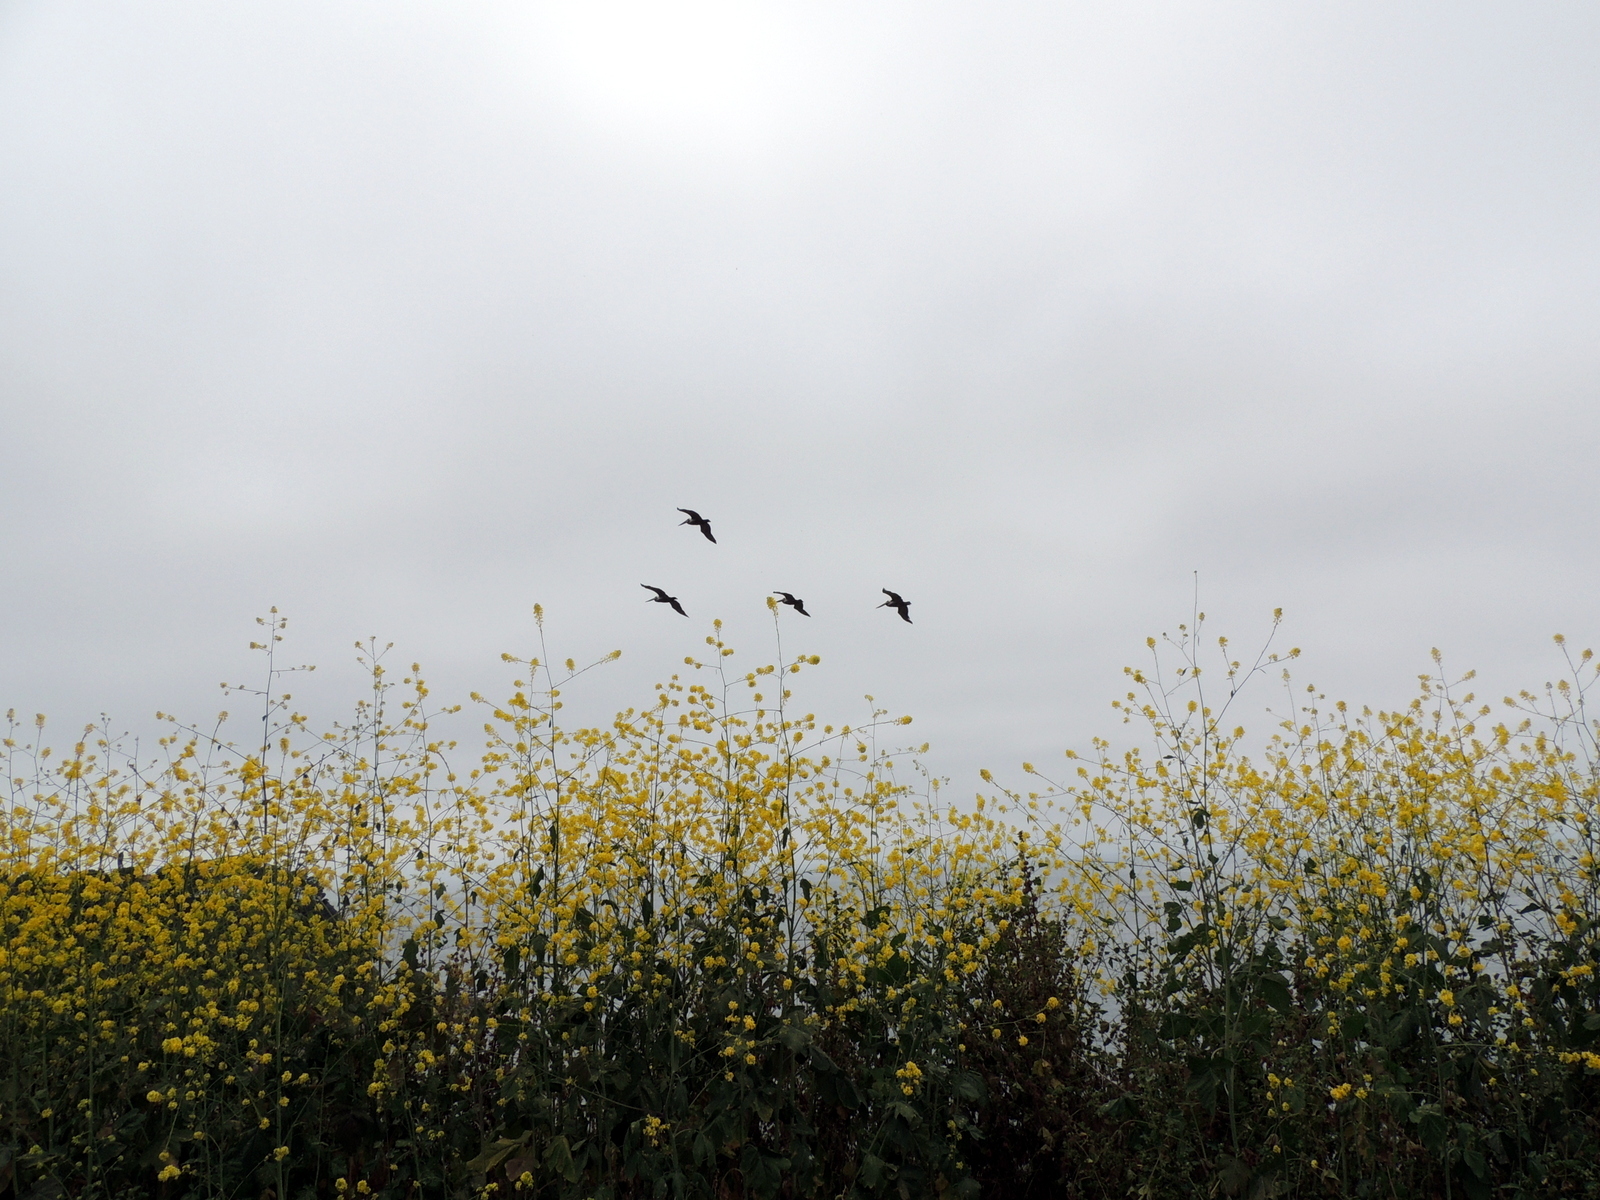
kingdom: Animalia
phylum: Chordata
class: Aves
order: Pelecaniformes
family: Pelecanidae
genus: Pelecanus
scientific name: Pelecanus occidentalis
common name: Brown pelican
